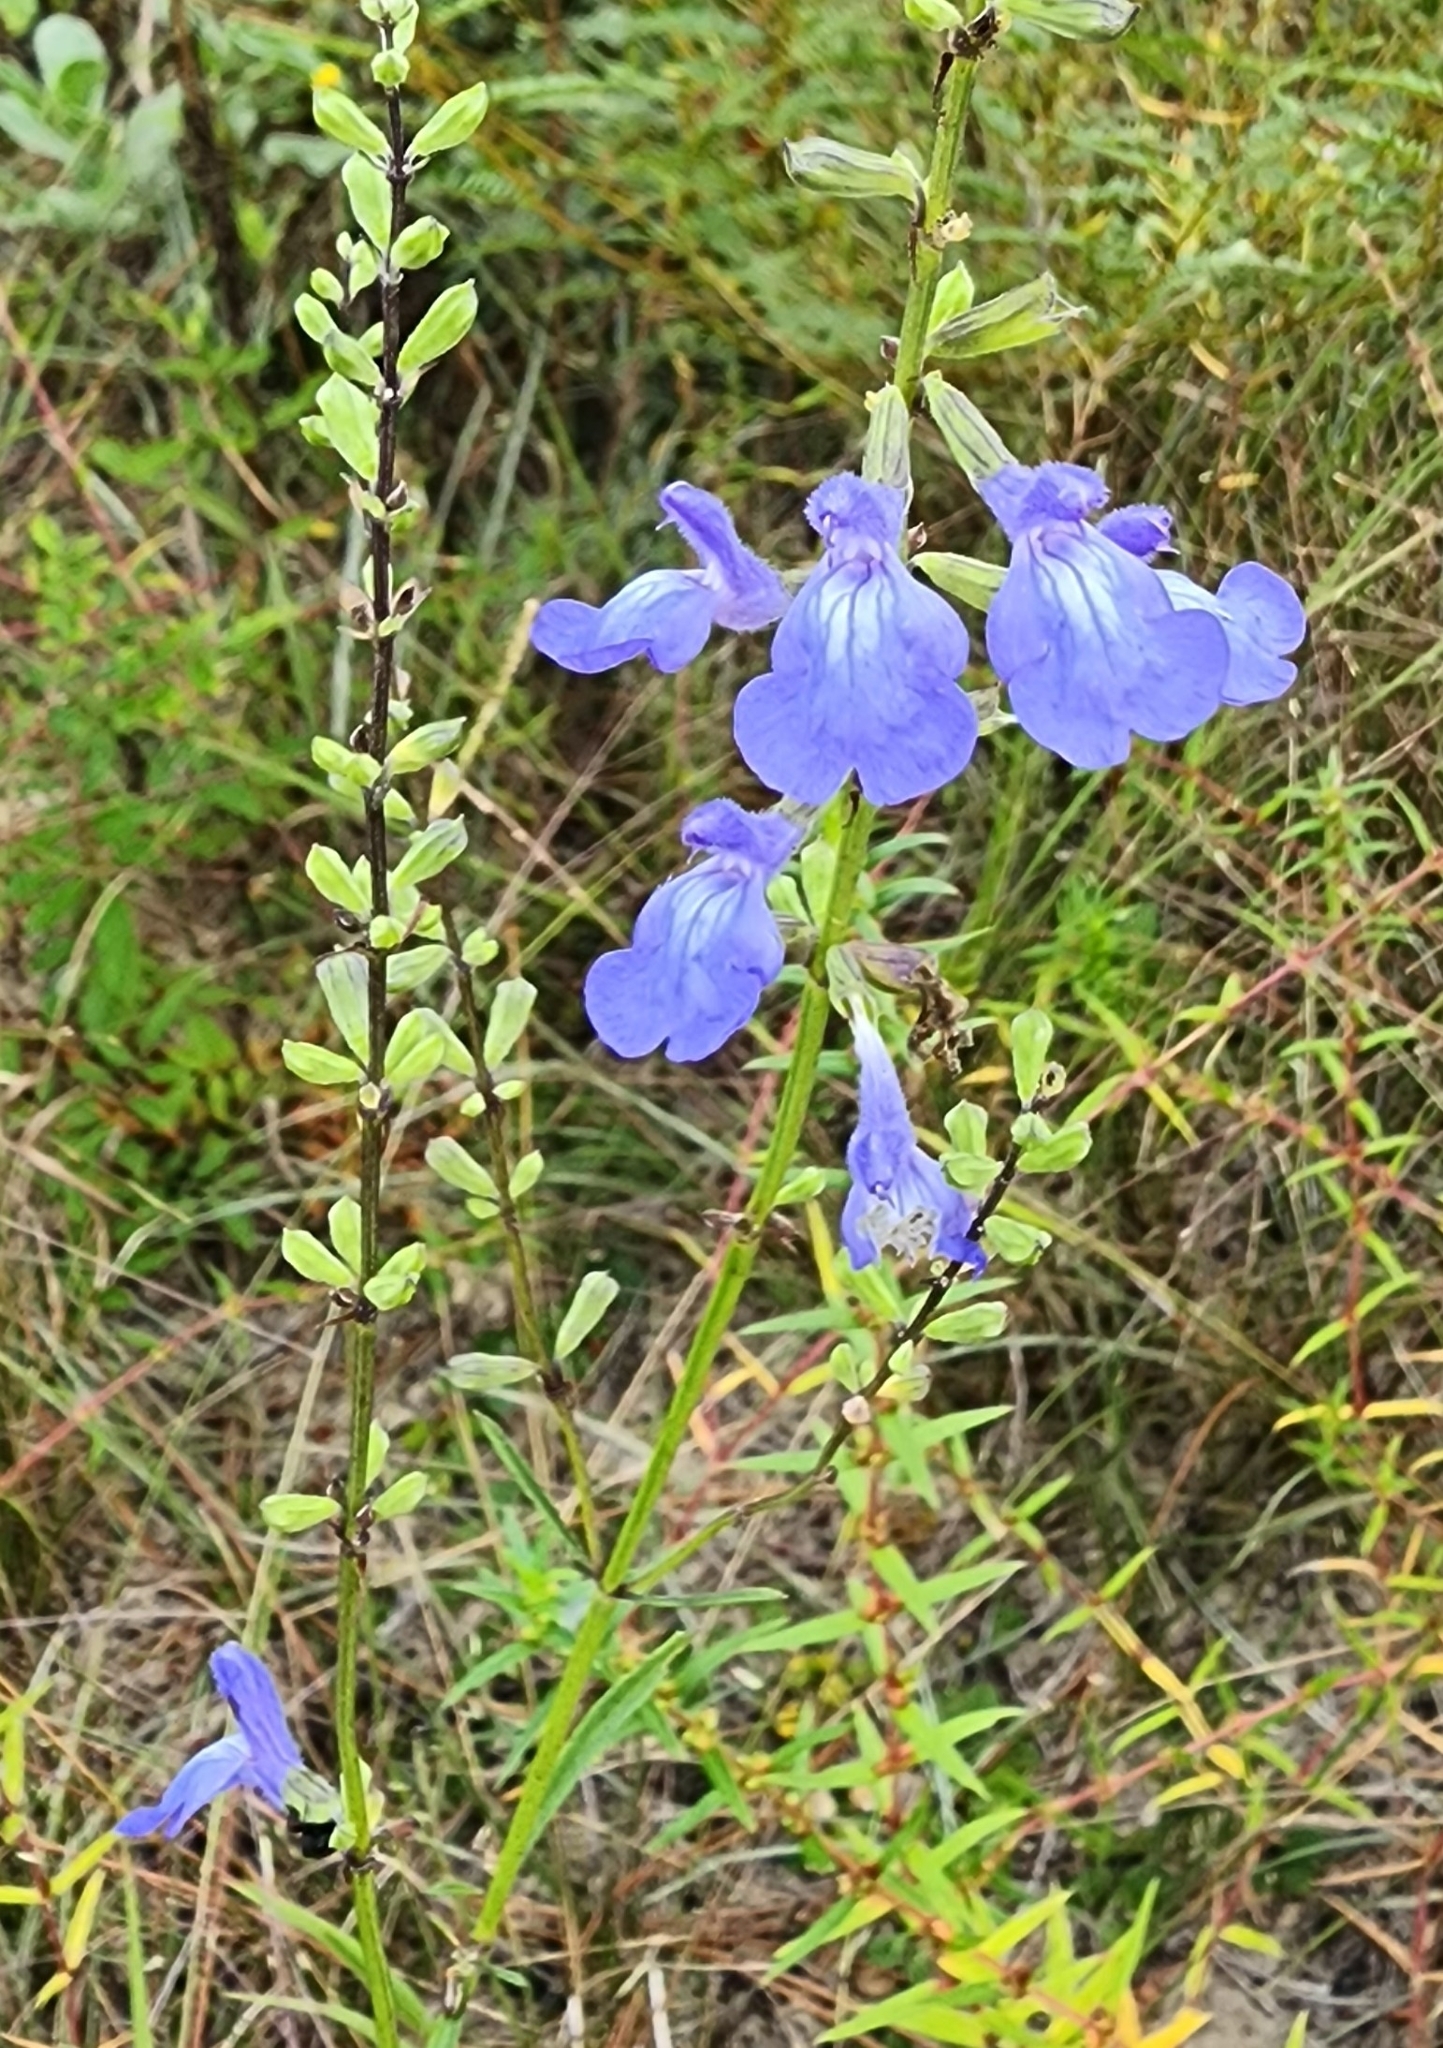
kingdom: Plantae
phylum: Tracheophyta
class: Magnoliopsida
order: Lamiales
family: Lamiaceae
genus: Salvia
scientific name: Salvia azurea
